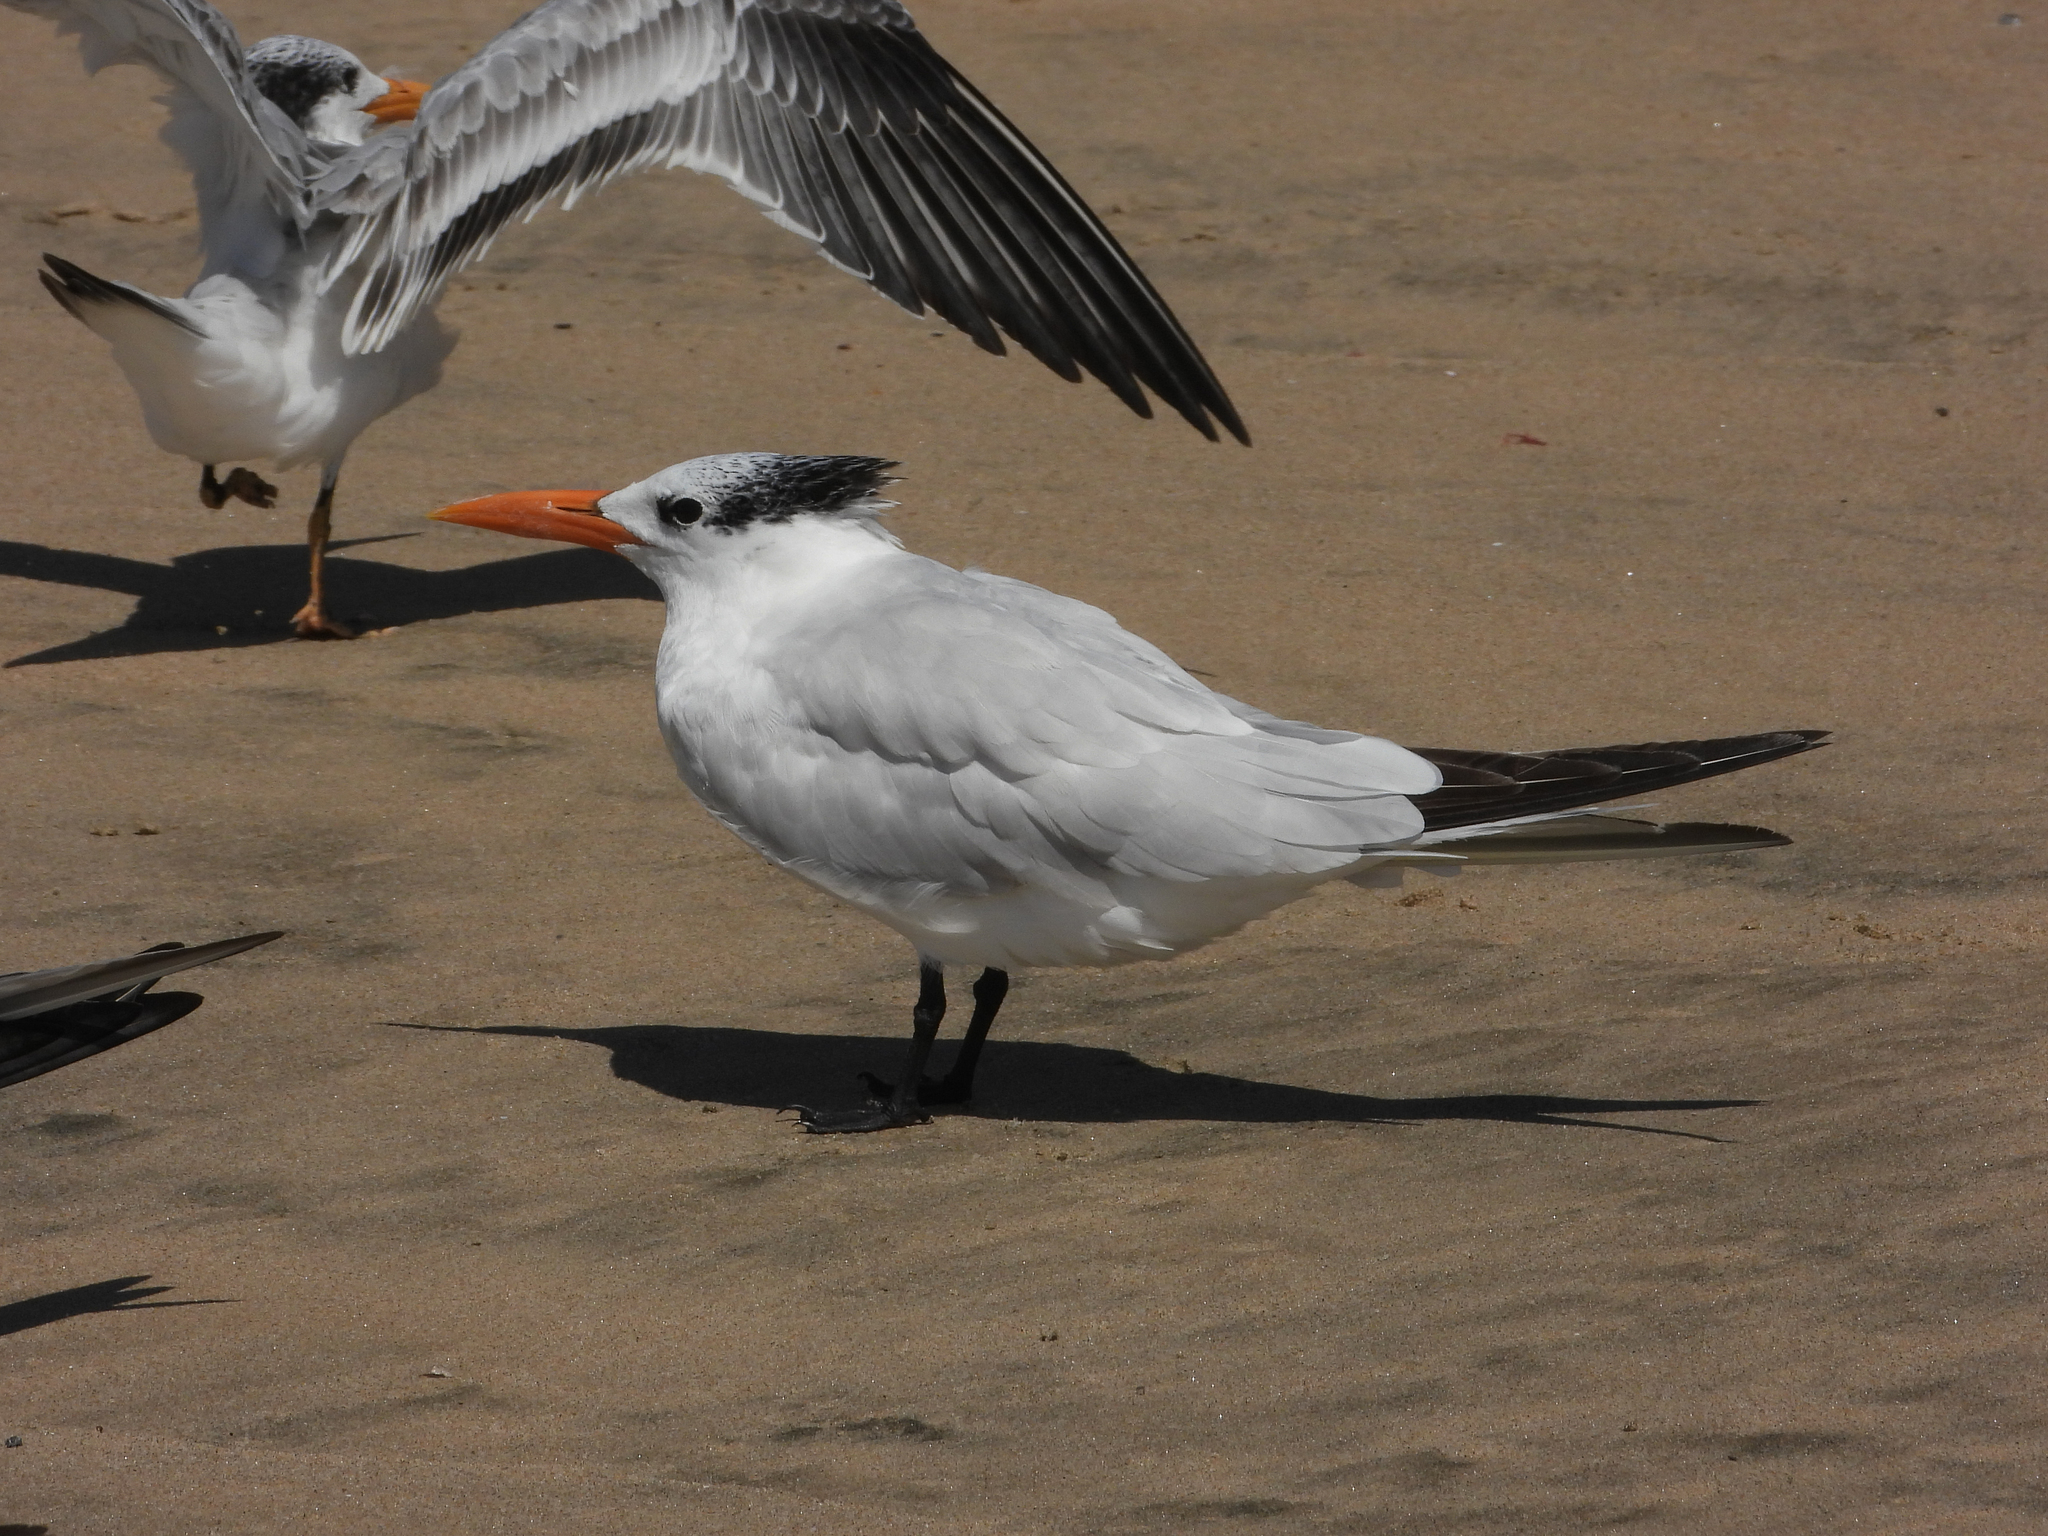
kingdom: Animalia
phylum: Chordata
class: Aves
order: Charadriiformes
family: Laridae
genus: Thalasseus
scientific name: Thalasseus maximus
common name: Royal tern
